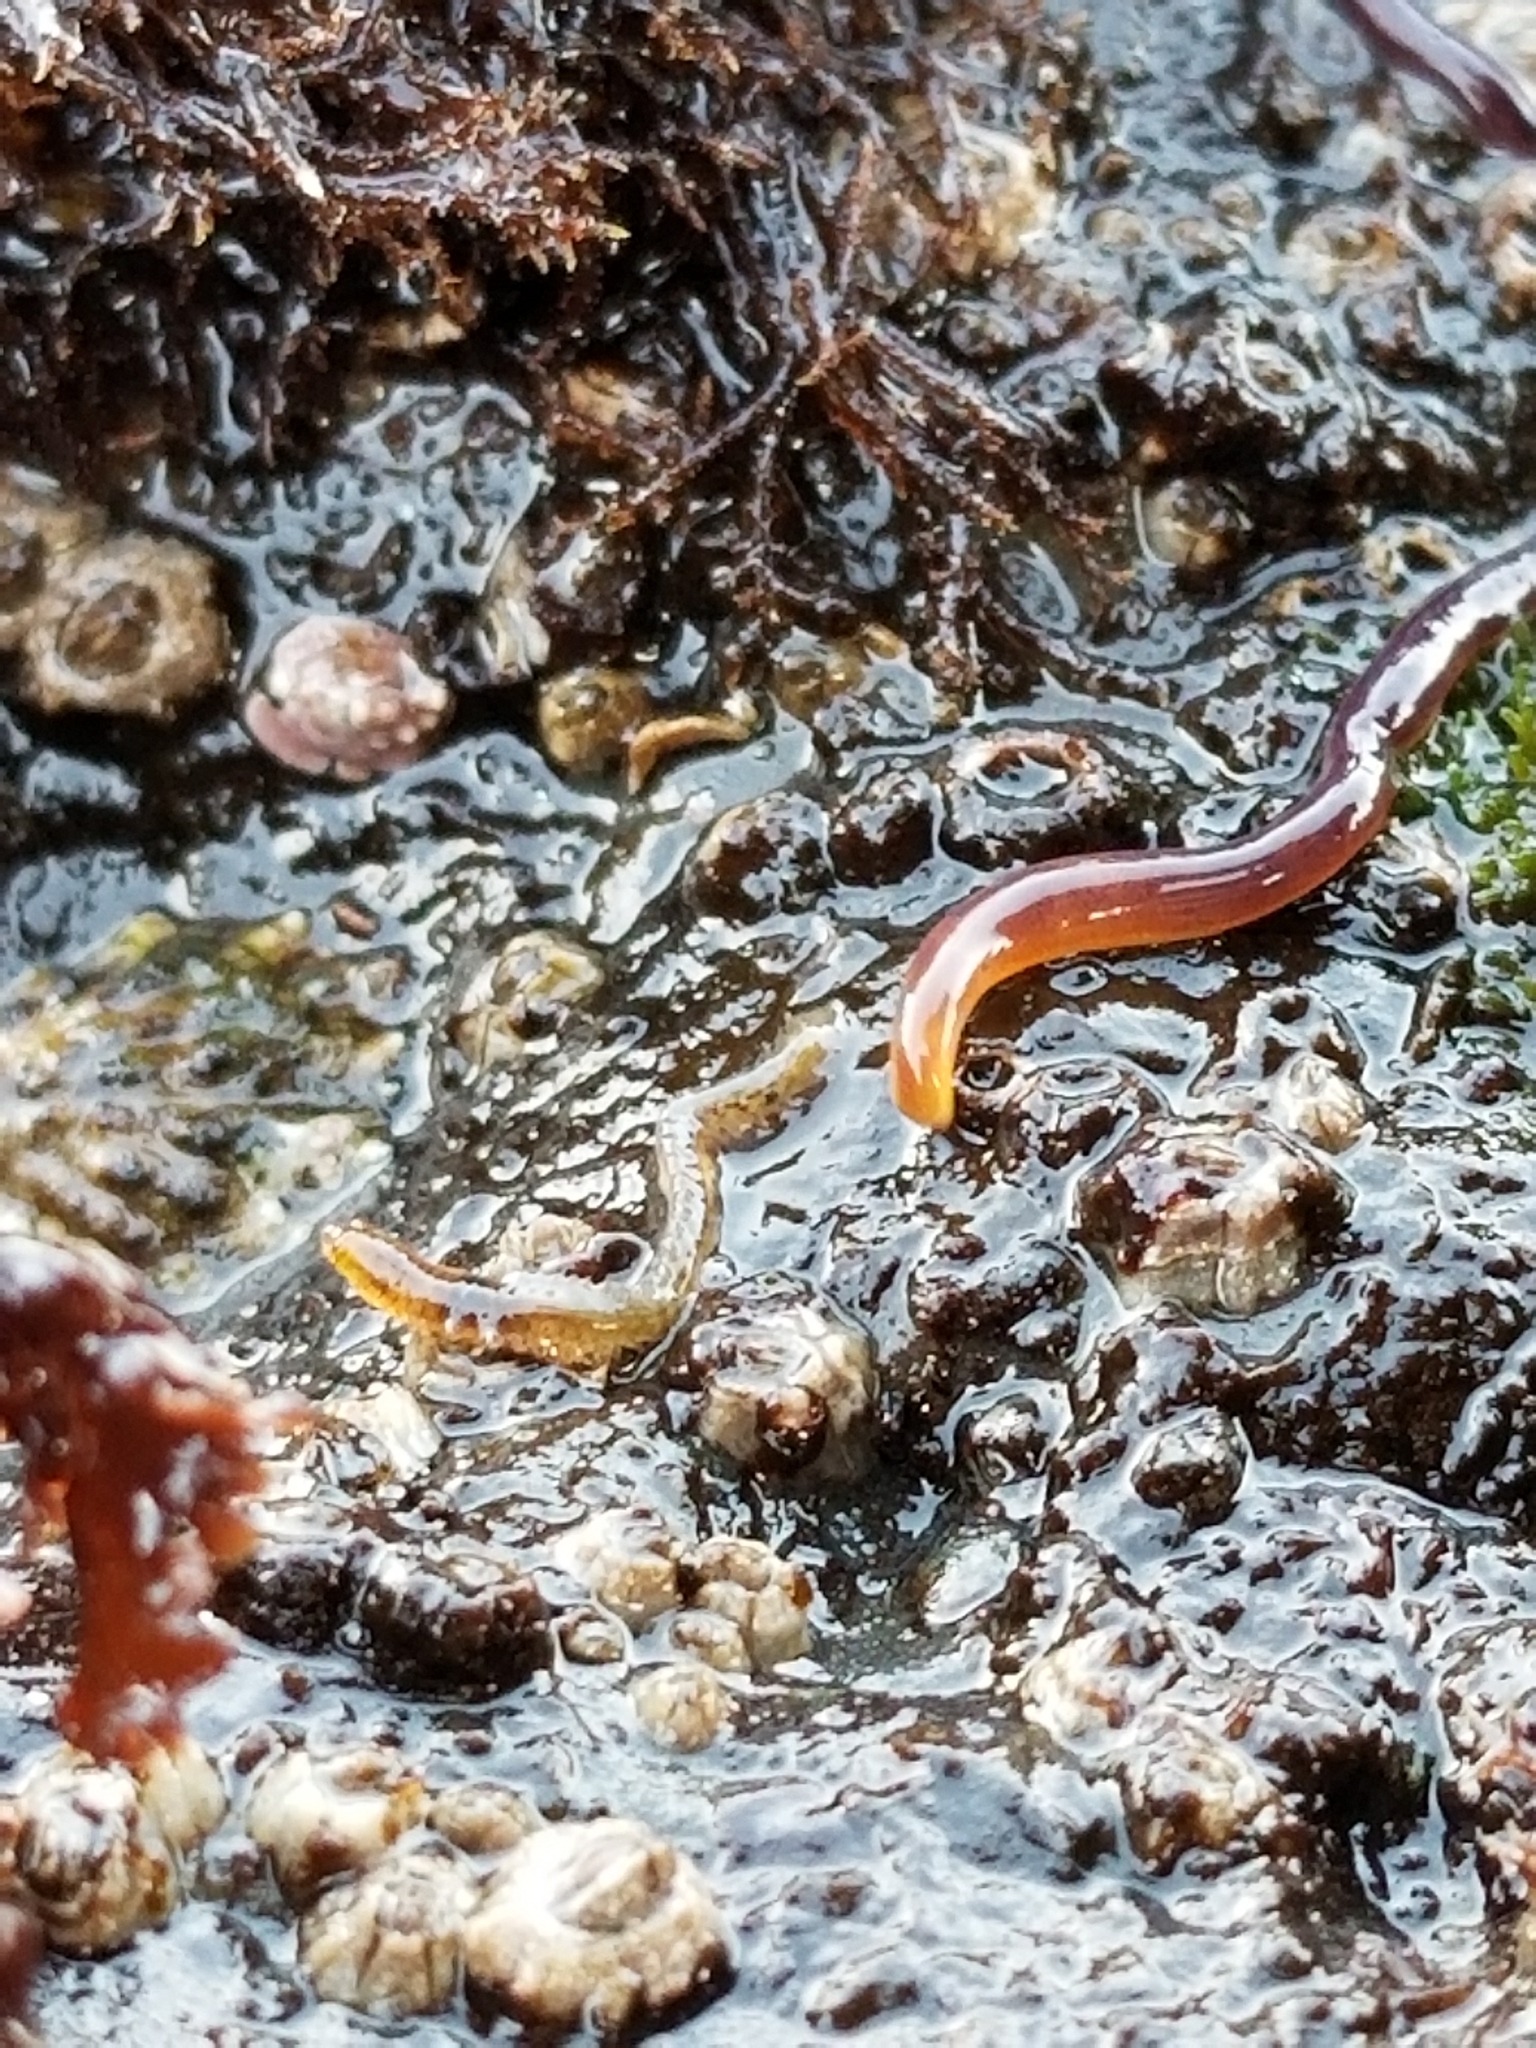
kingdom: Animalia
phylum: Nemertea
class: Hoplonemertea
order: Monostilifera
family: Neesiidae
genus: Paranemertes
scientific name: Paranemertes peregrina
